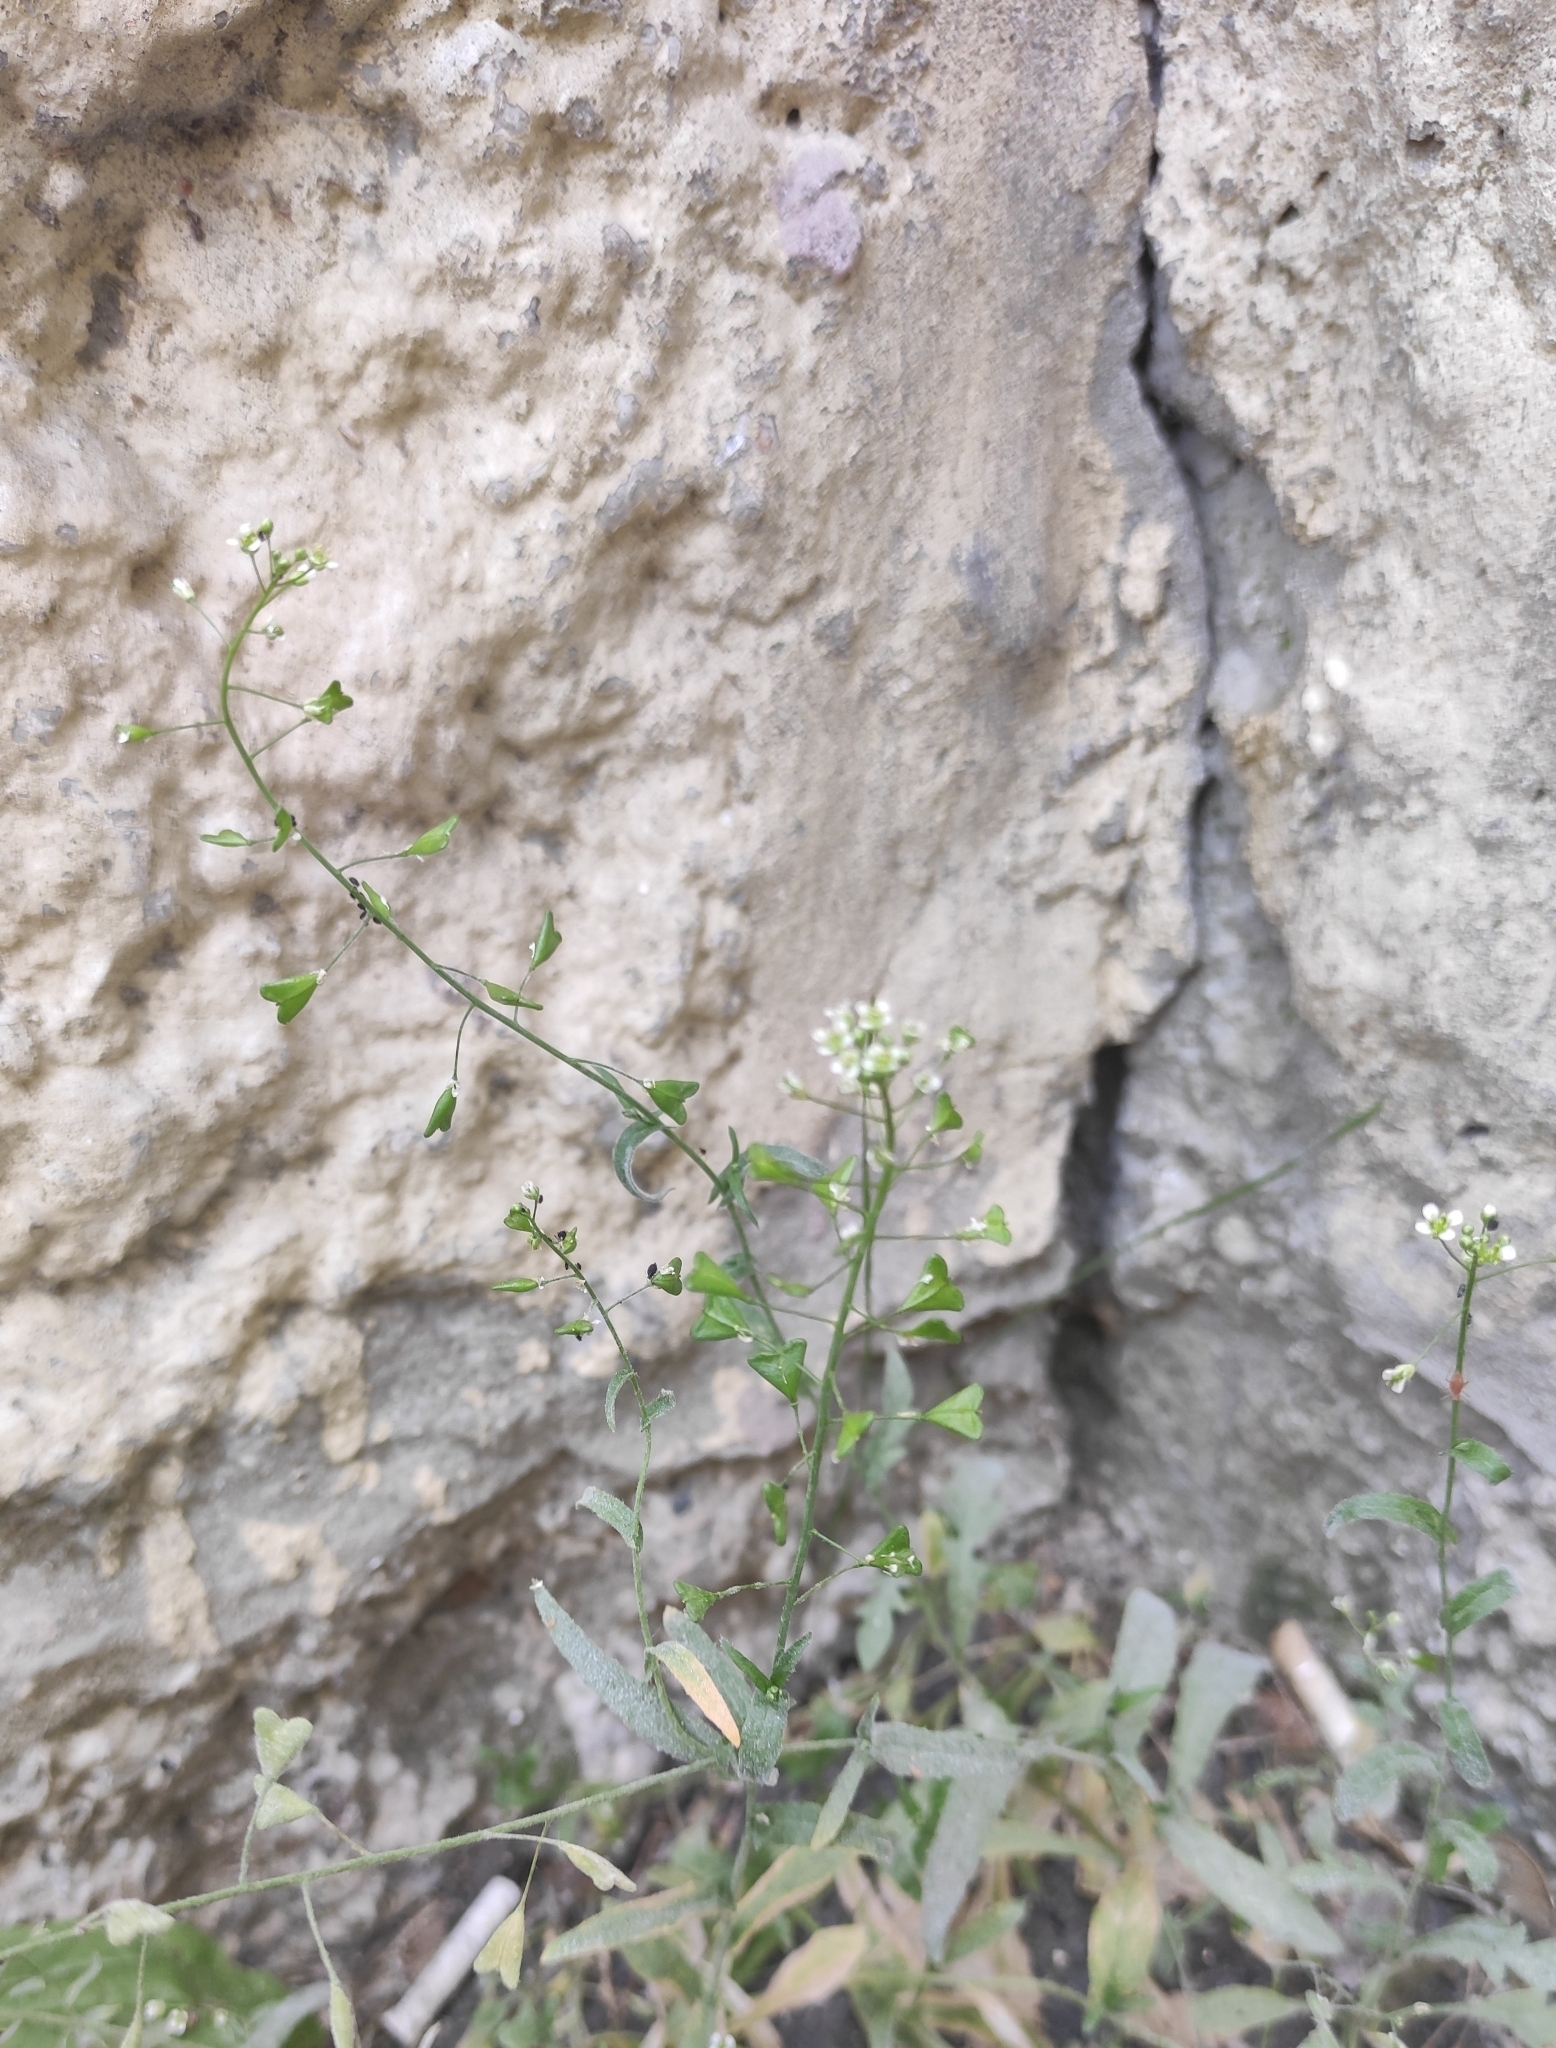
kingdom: Plantae
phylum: Tracheophyta
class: Magnoliopsida
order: Brassicales
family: Brassicaceae
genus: Capsella
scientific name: Capsella bursa-pastoris
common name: Shepherd's purse
